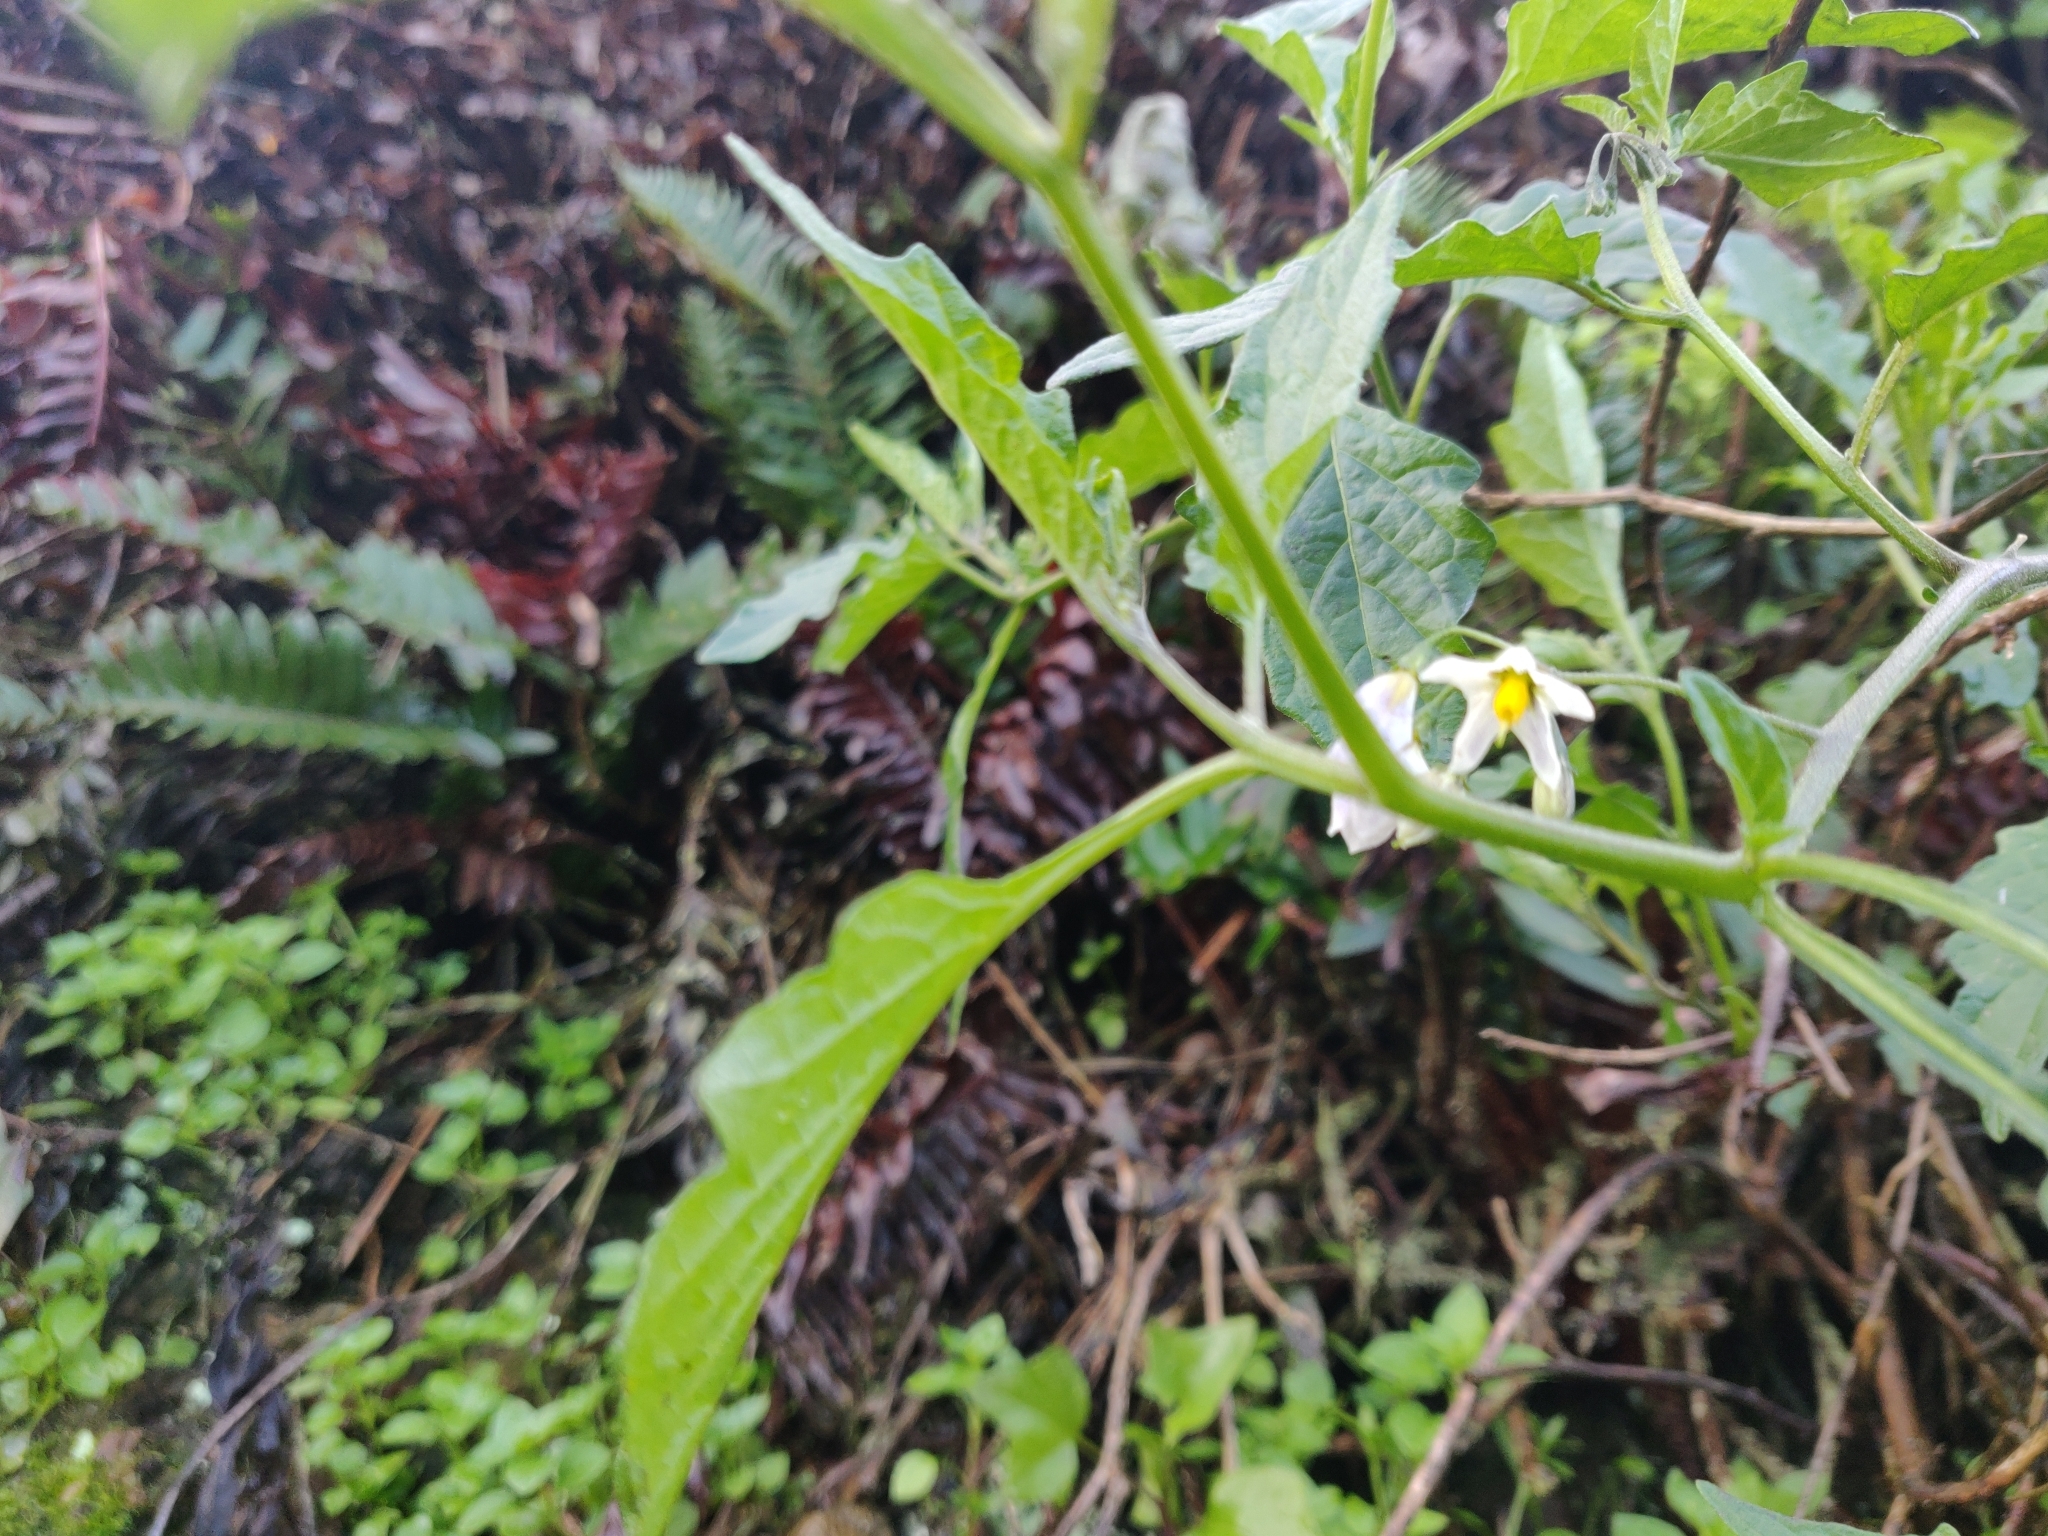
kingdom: Plantae
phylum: Tracheophyta
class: Magnoliopsida
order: Solanales
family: Solanaceae
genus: Solanum
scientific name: Solanum furcatum
